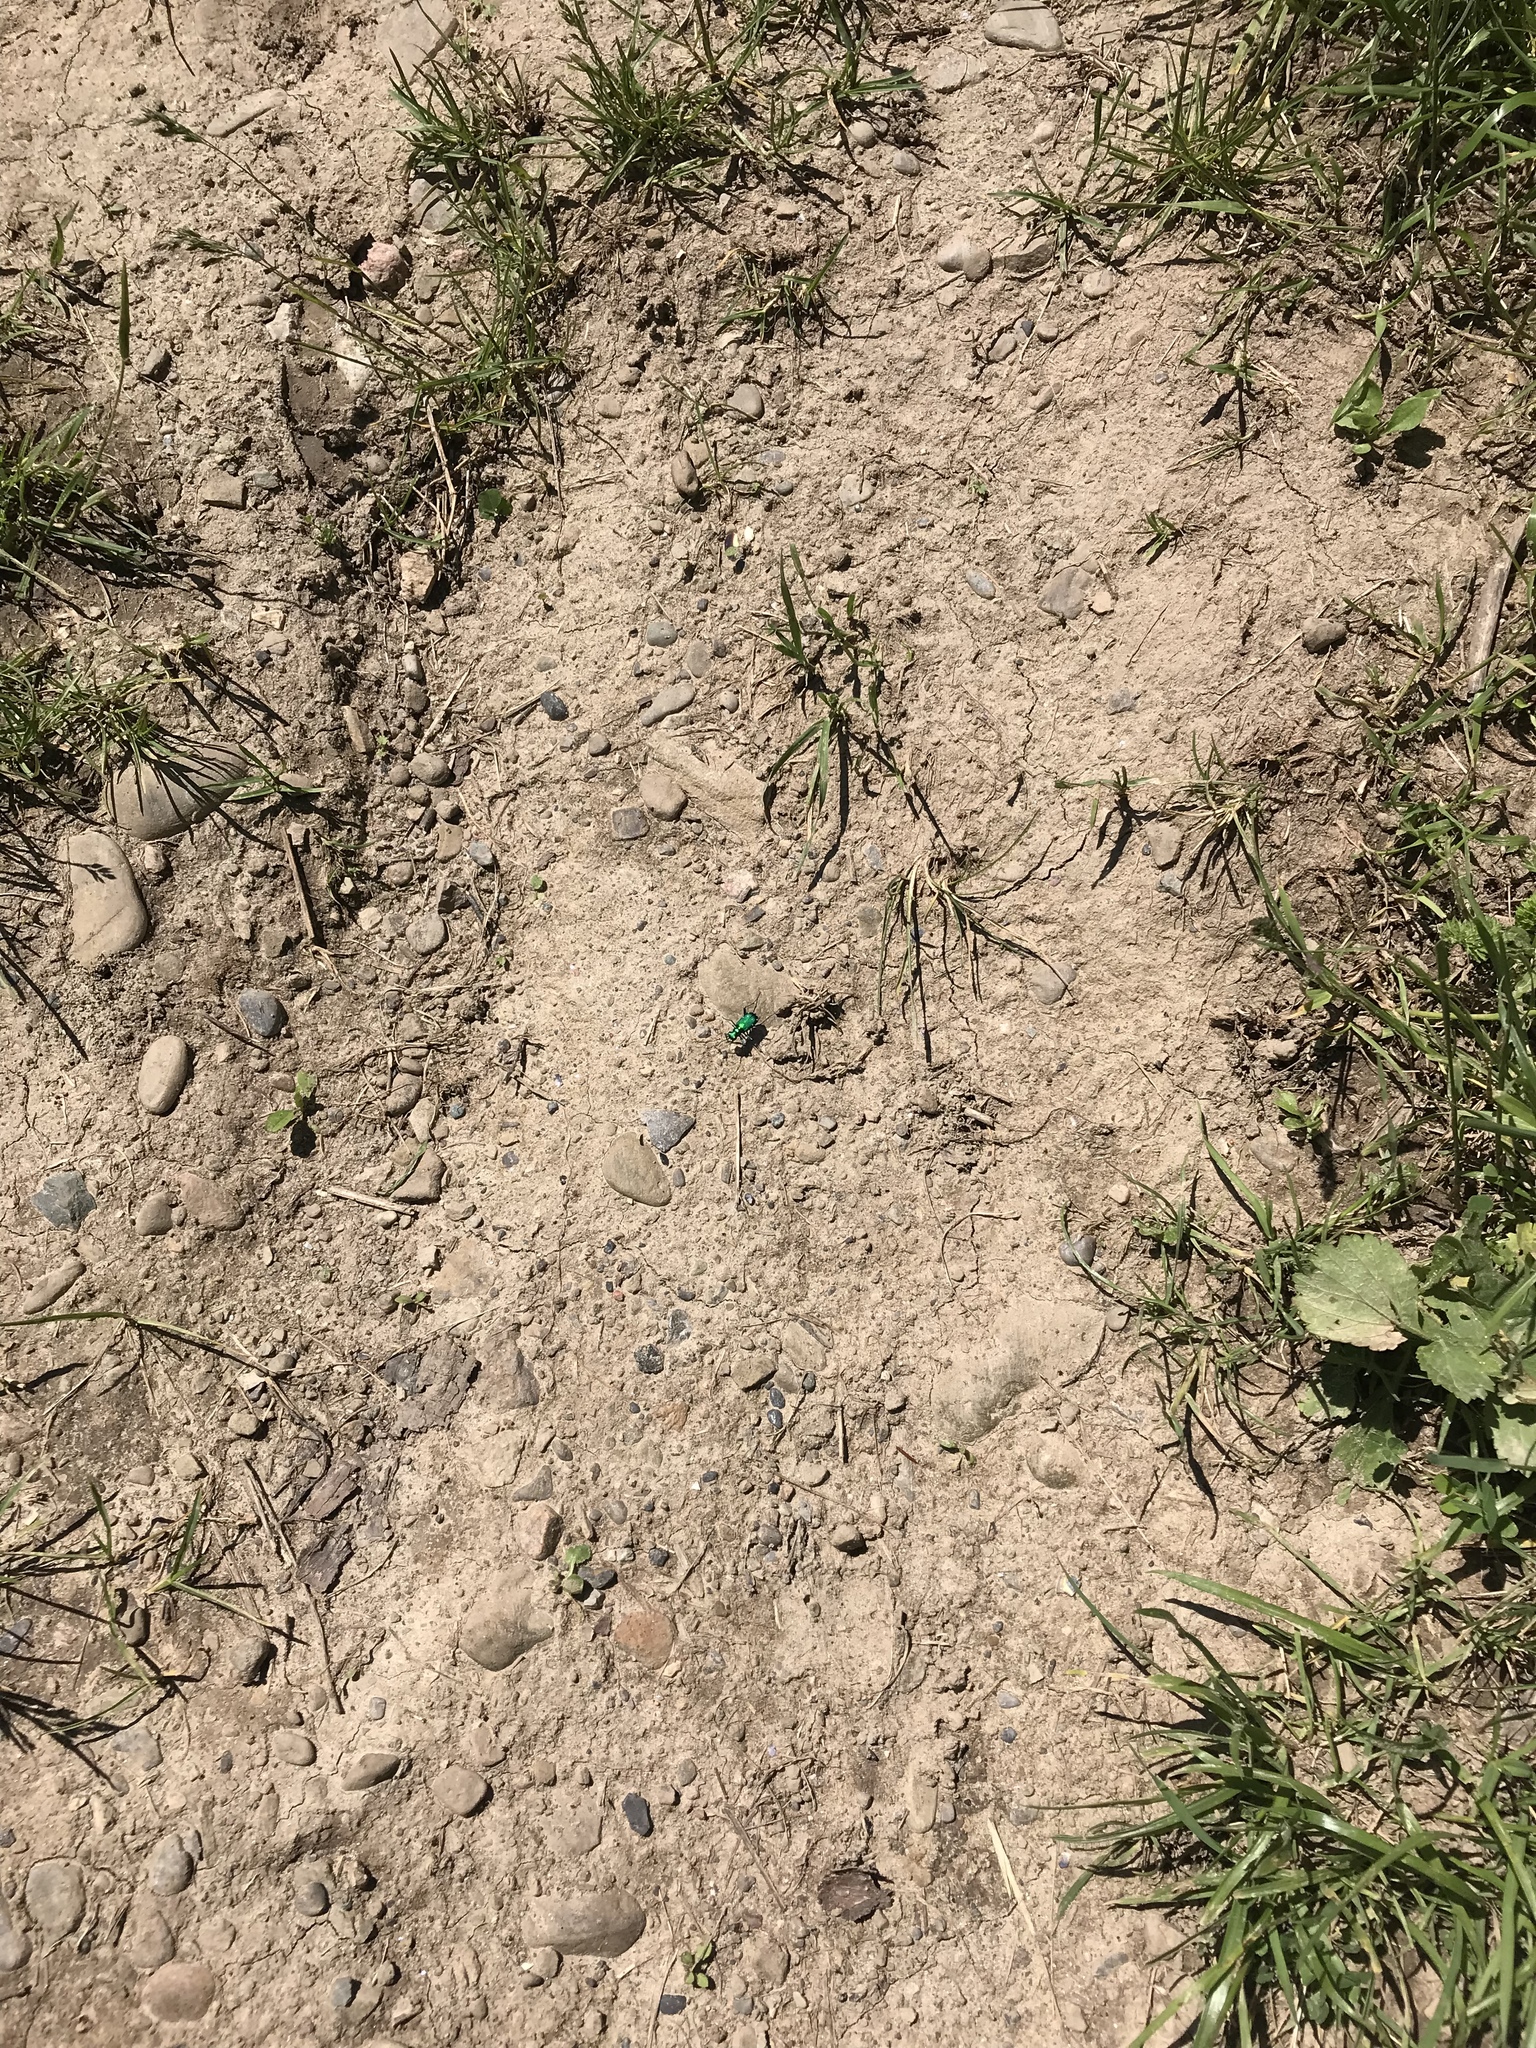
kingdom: Animalia
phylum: Arthropoda
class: Insecta
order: Coleoptera
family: Carabidae
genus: Cicindela
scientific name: Cicindela sexguttata
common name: Six-spotted tiger beetle
